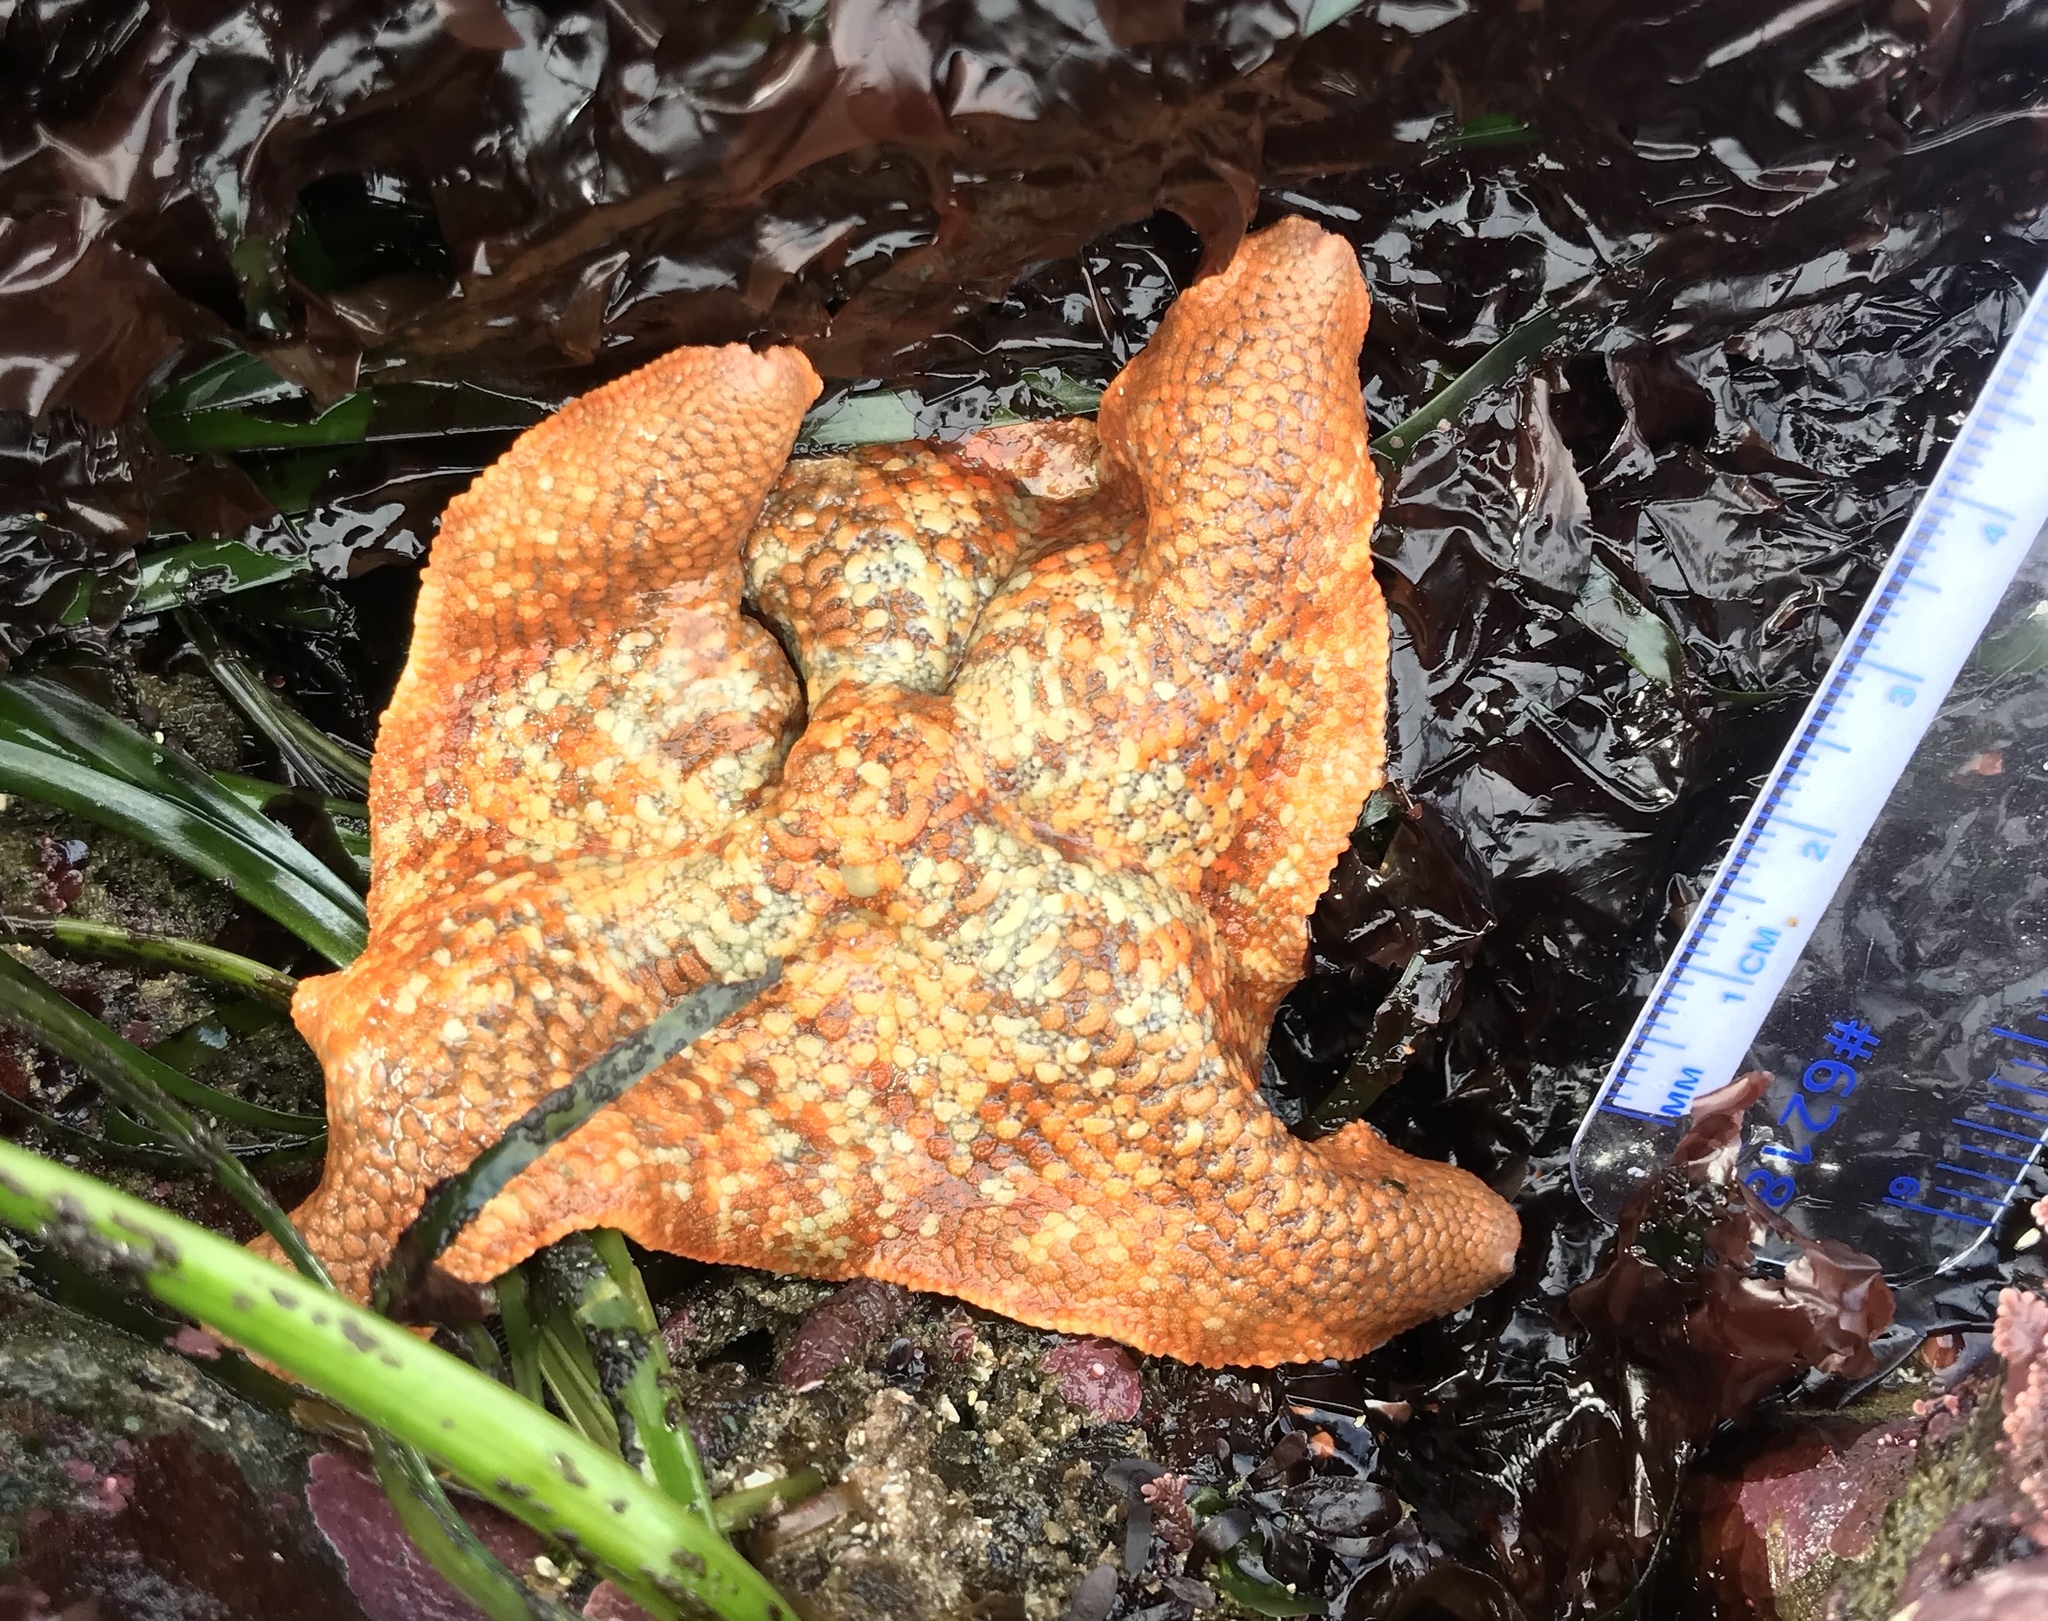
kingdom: Animalia
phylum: Echinodermata
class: Asteroidea
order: Valvatida
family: Asterinidae
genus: Patiria
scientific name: Patiria miniata
